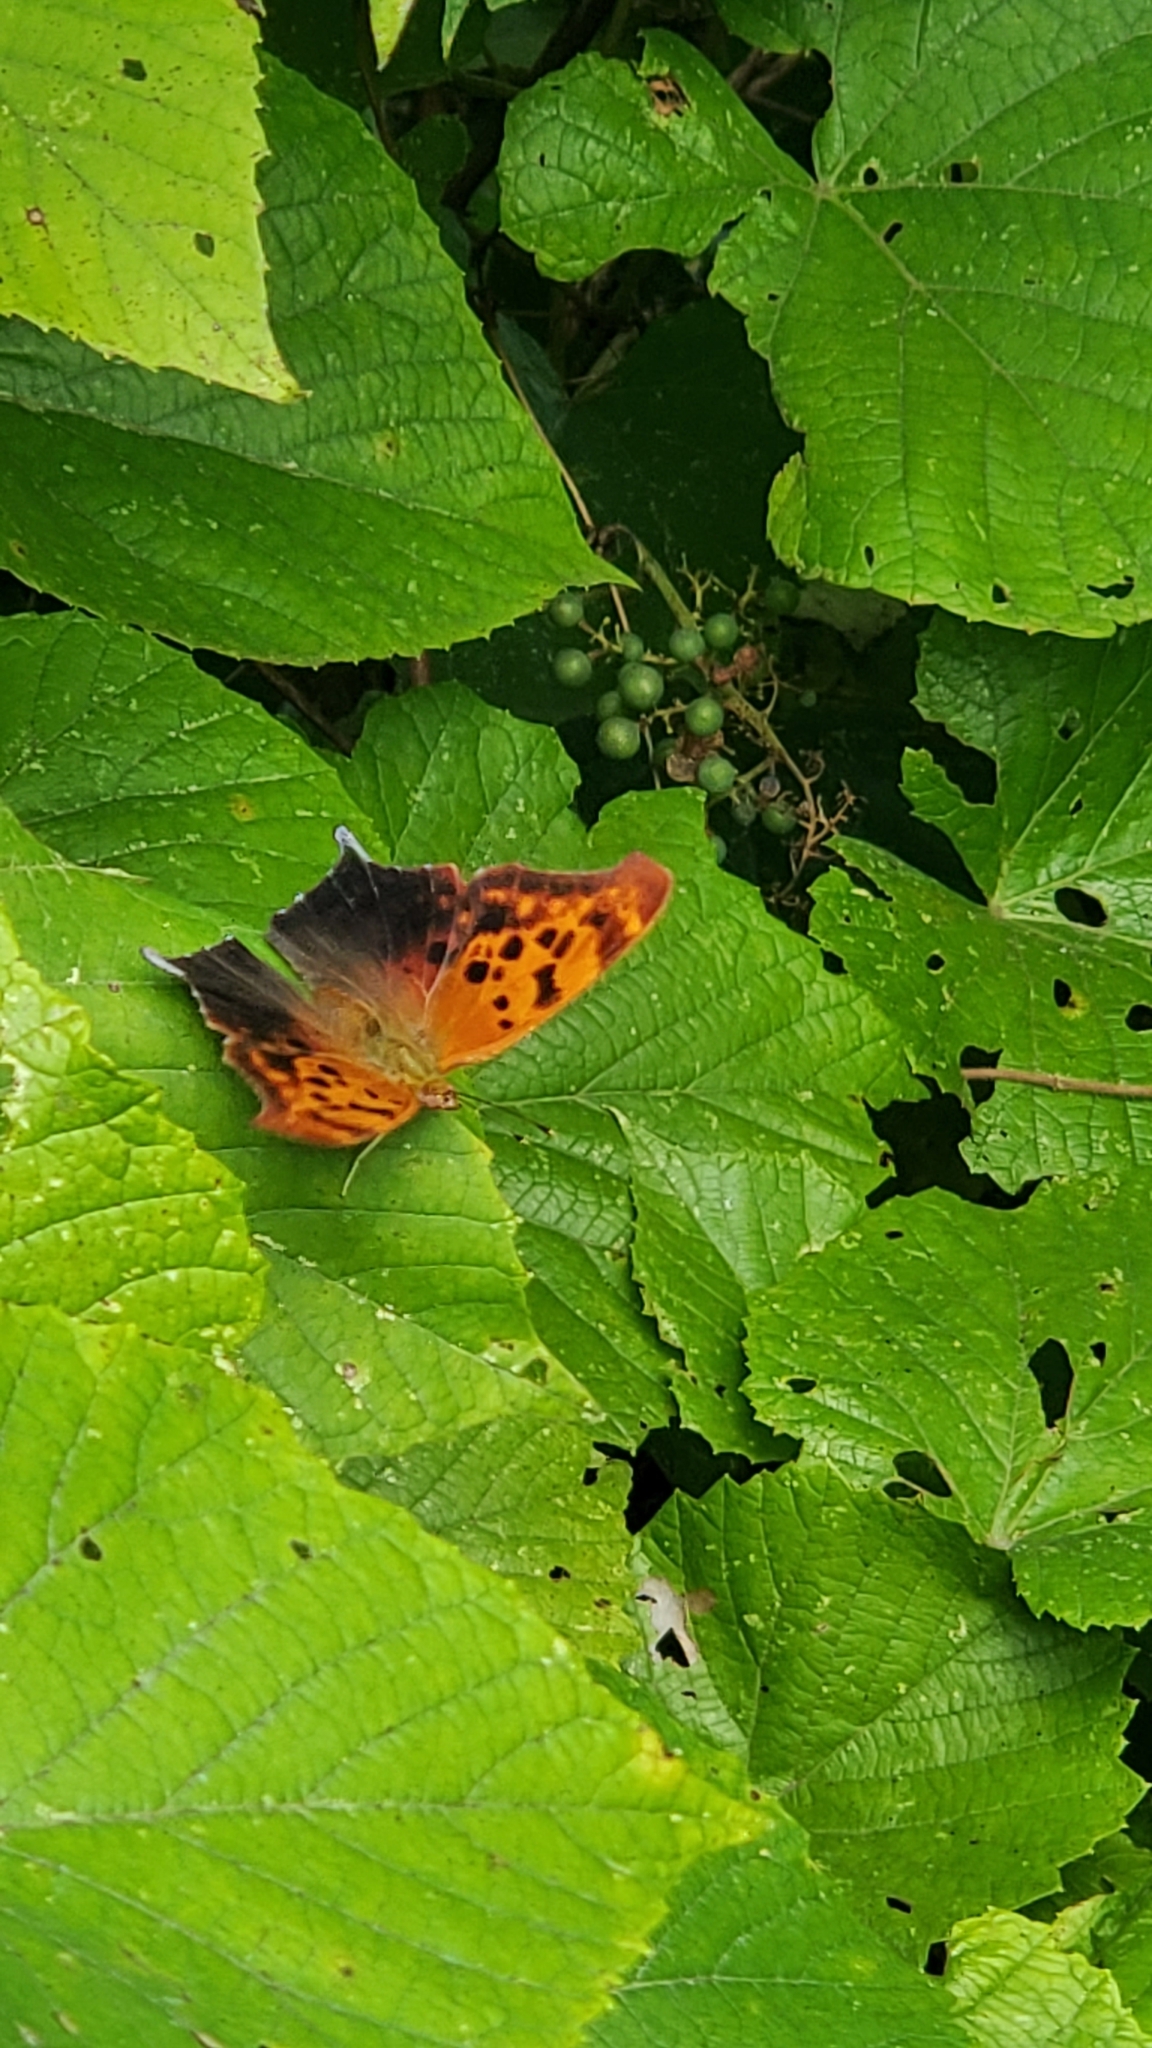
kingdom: Animalia
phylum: Arthropoda
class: Insecta
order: Lepidoptera
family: Nymphalidae
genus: Polygonia
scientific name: Polygonia interrogationis
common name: Question mark
